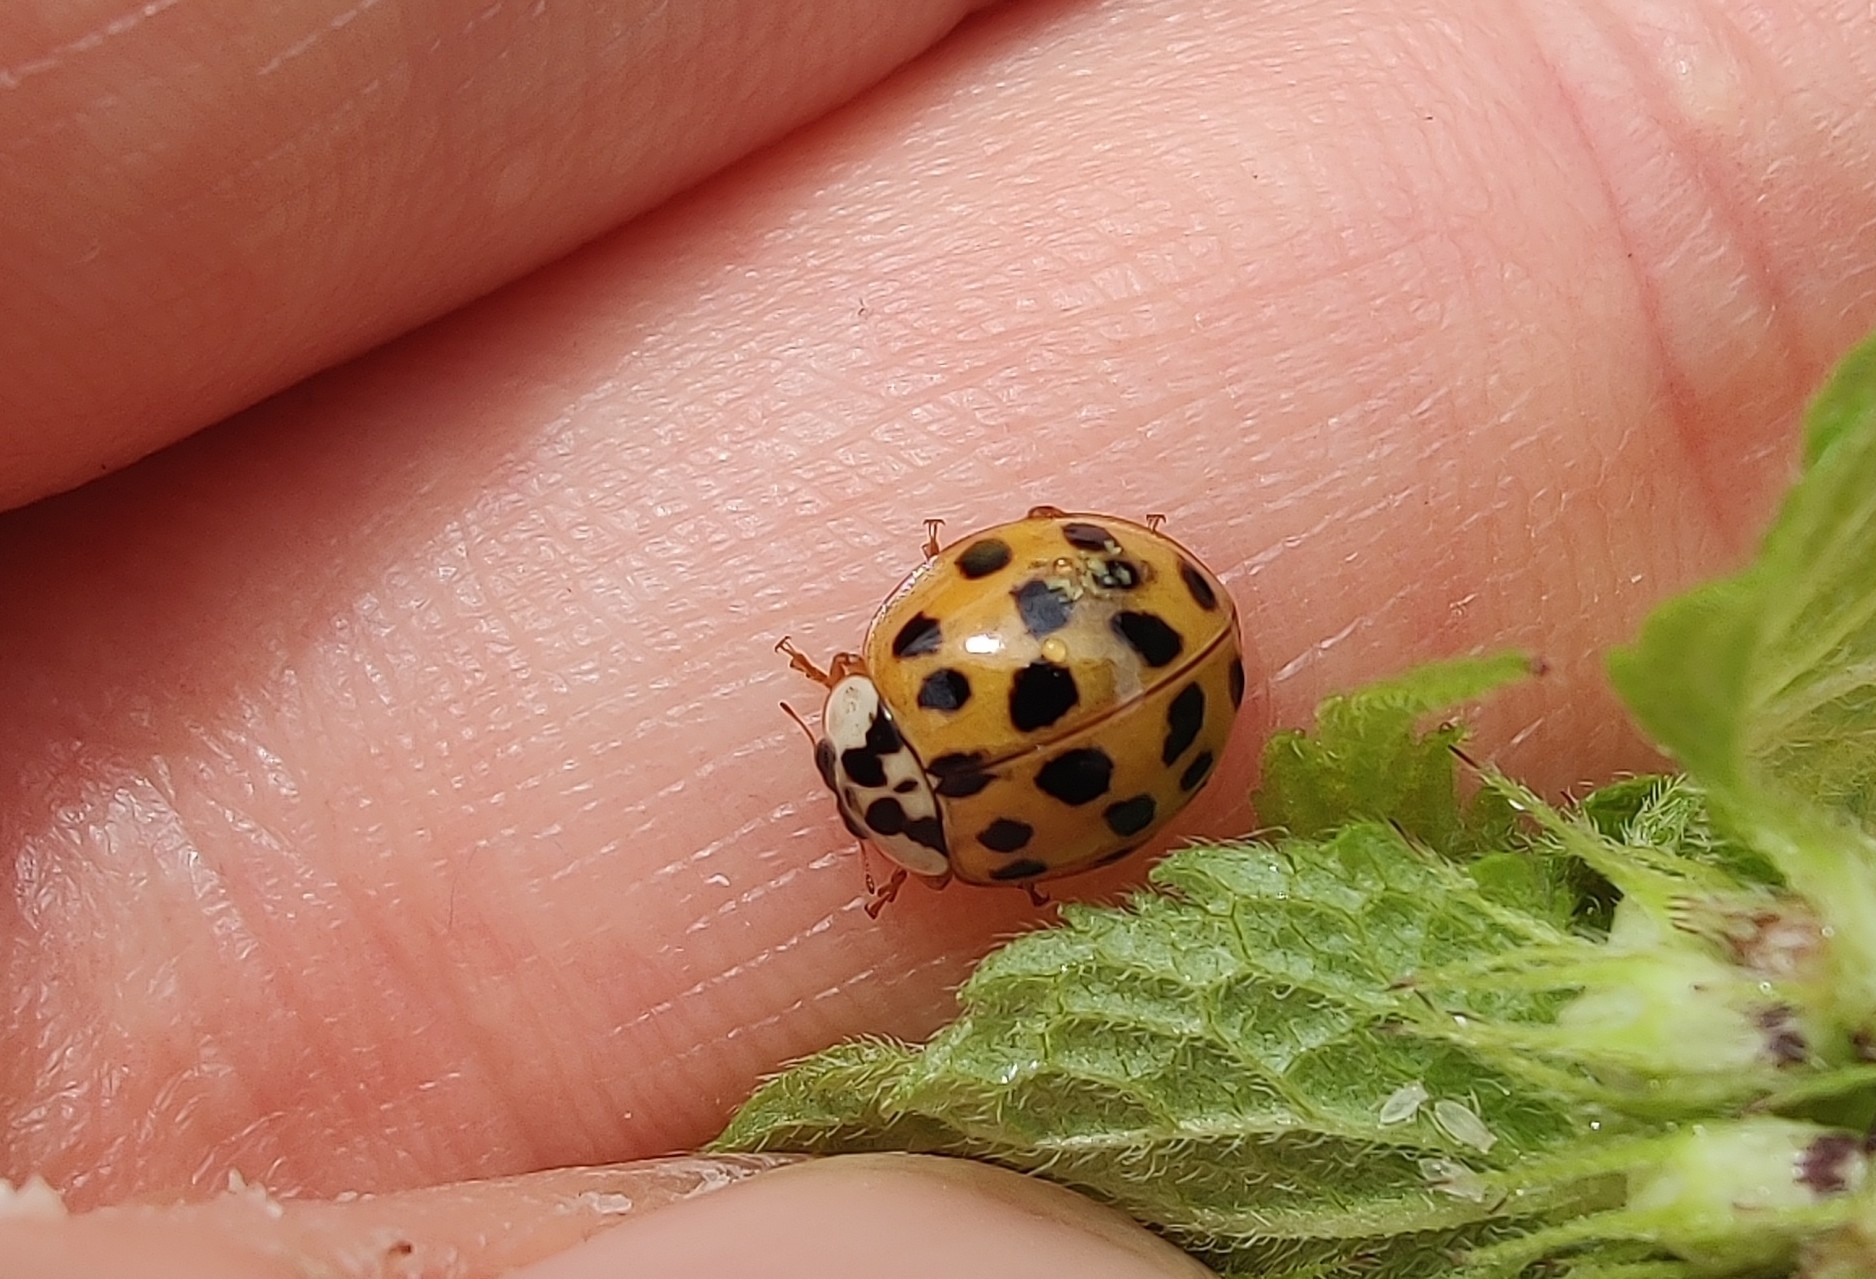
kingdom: Animalia
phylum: Arthropoda
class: Insecta
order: Coleoptera
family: Coccinellidae
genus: Harmonia
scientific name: Harmonia axyridis
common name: Harlequin ladybird
